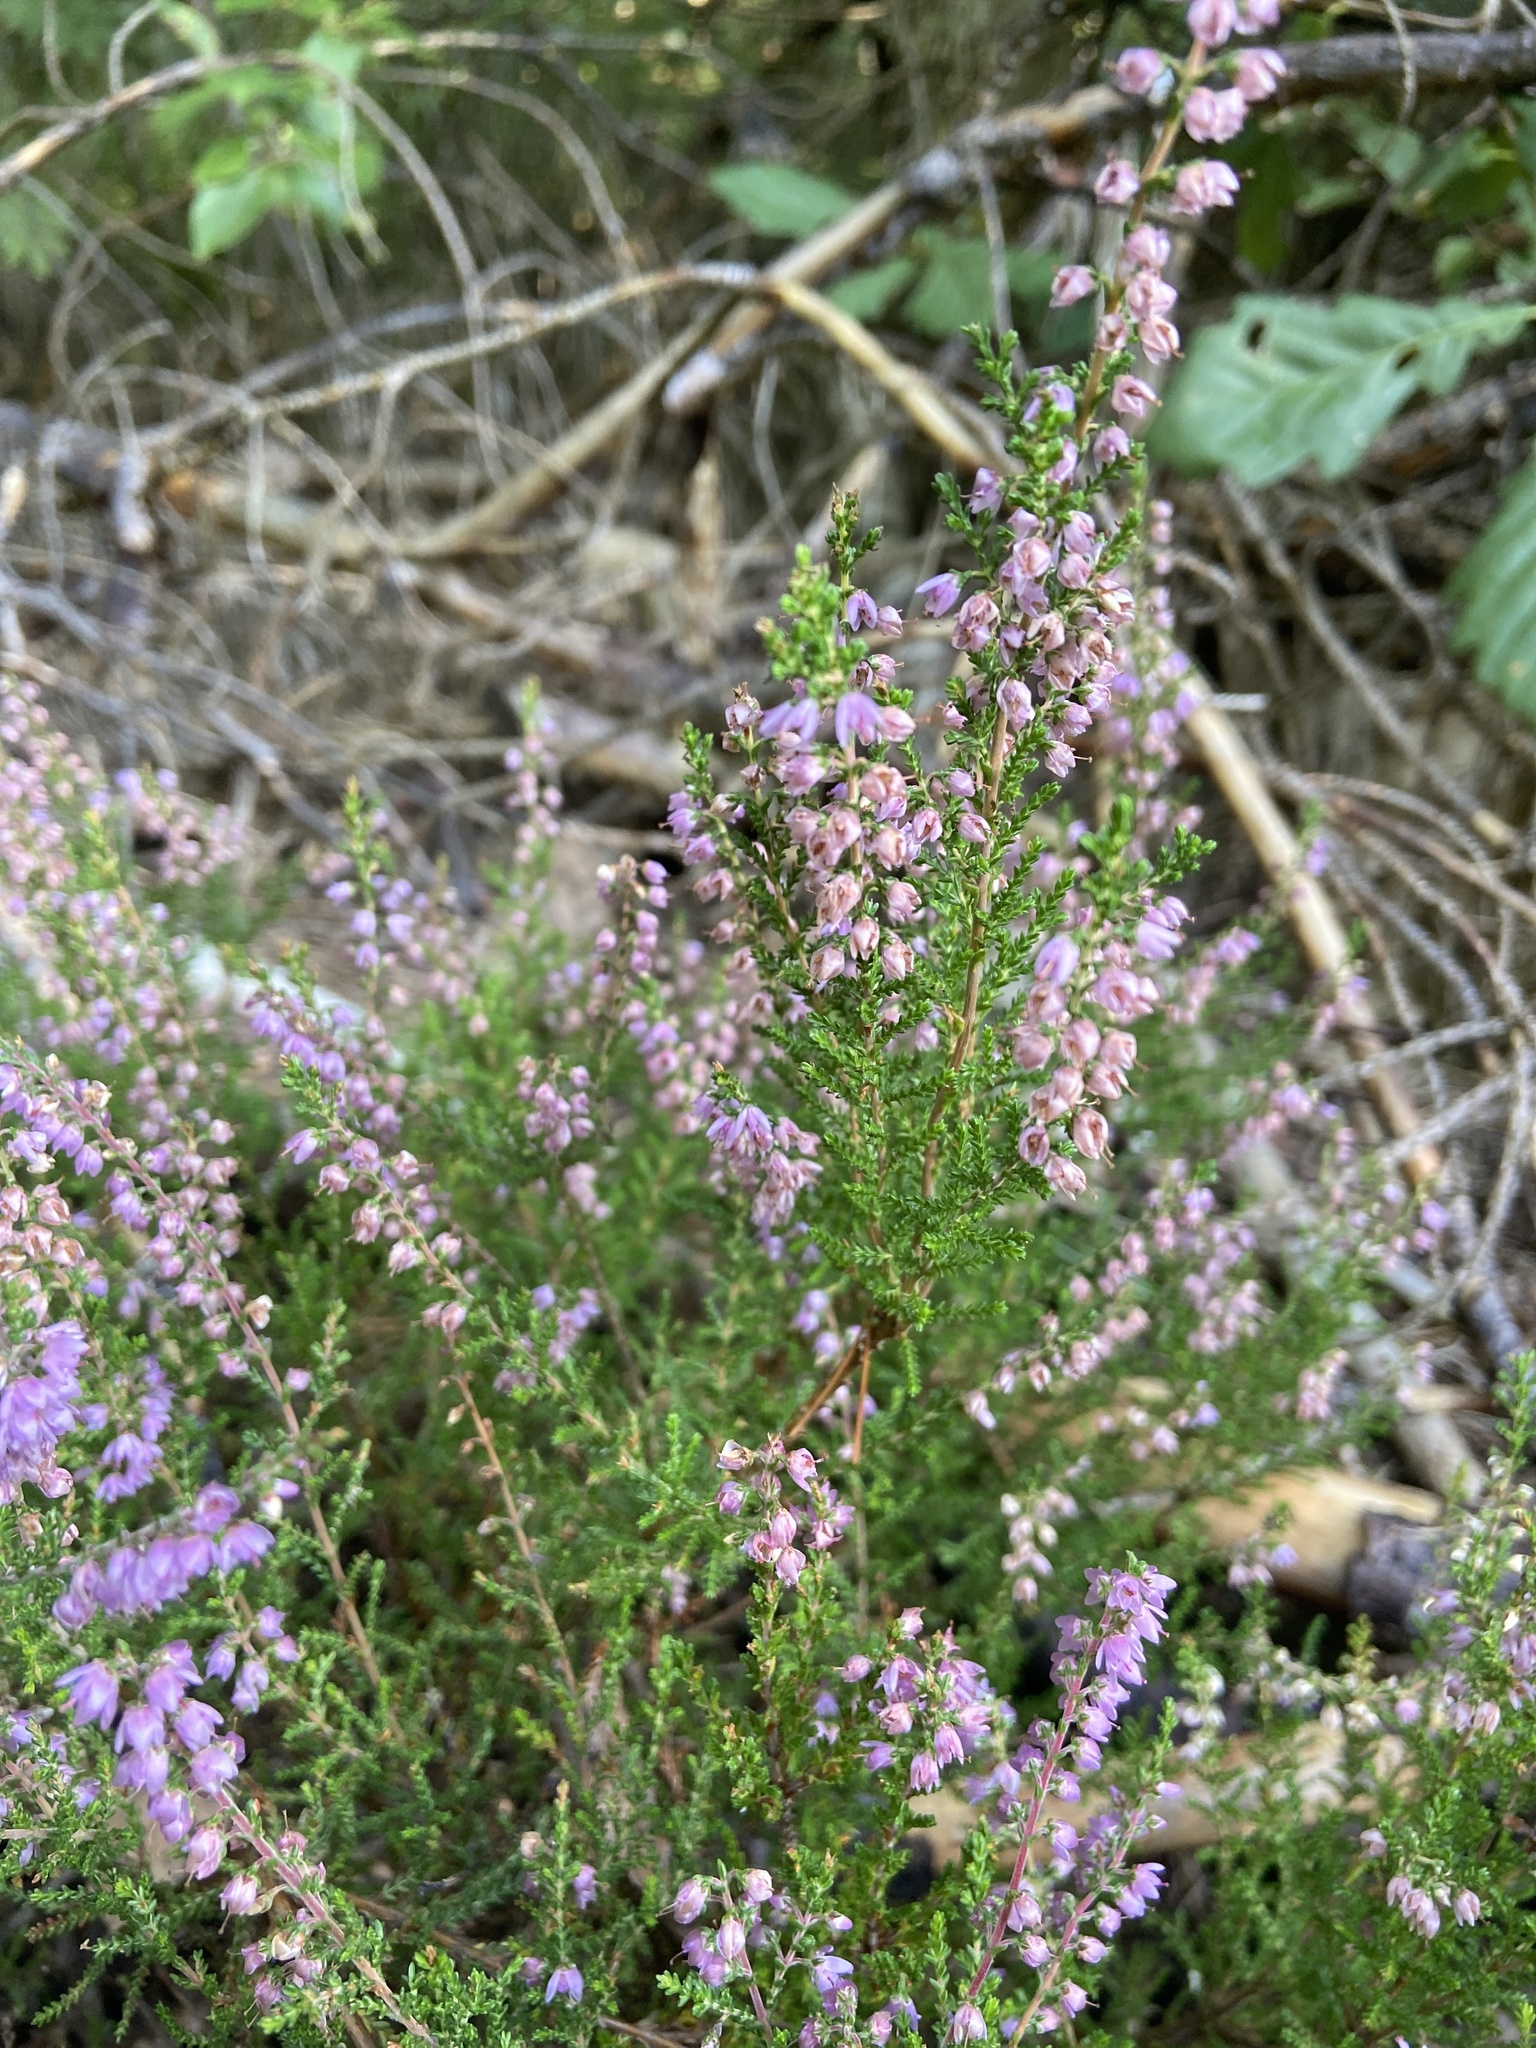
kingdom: Plantae
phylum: Tracheophyta
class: Magnoliopsida
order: Ericales
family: Ericaceae
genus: Calluna
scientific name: Calluna vulgaris
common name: Heather
